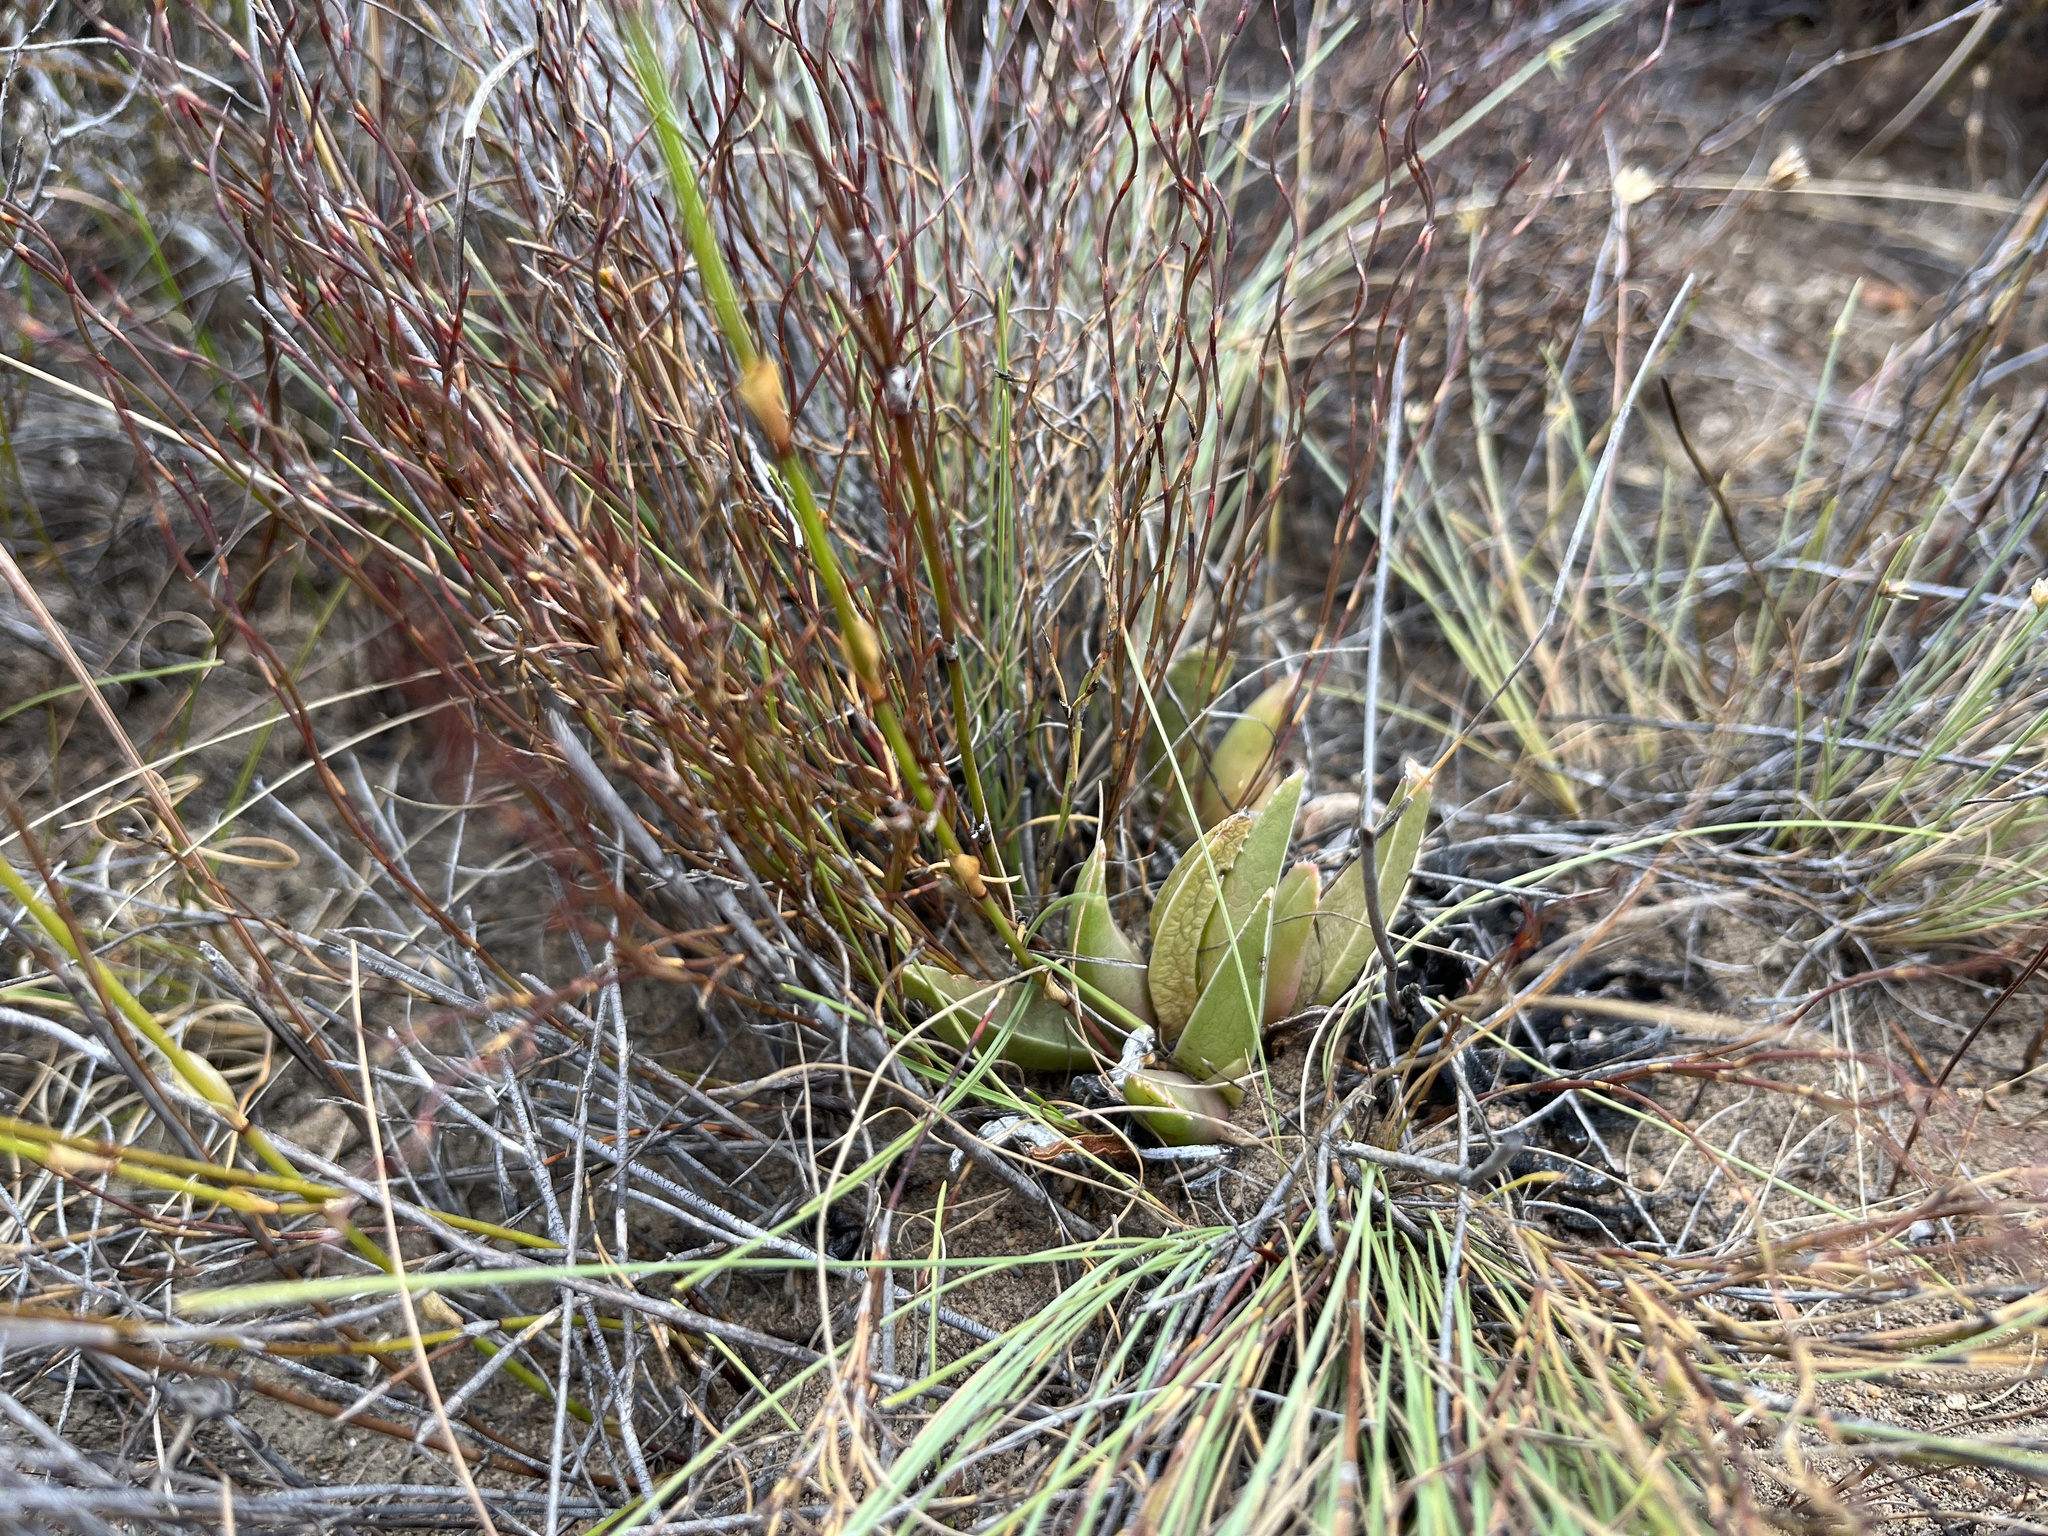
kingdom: Plantae
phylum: Tracheophyta
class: Magnoliopsida
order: Caryophyllales
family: Aizoaceae
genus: Acrodon
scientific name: Acrodon bellidiflorus
